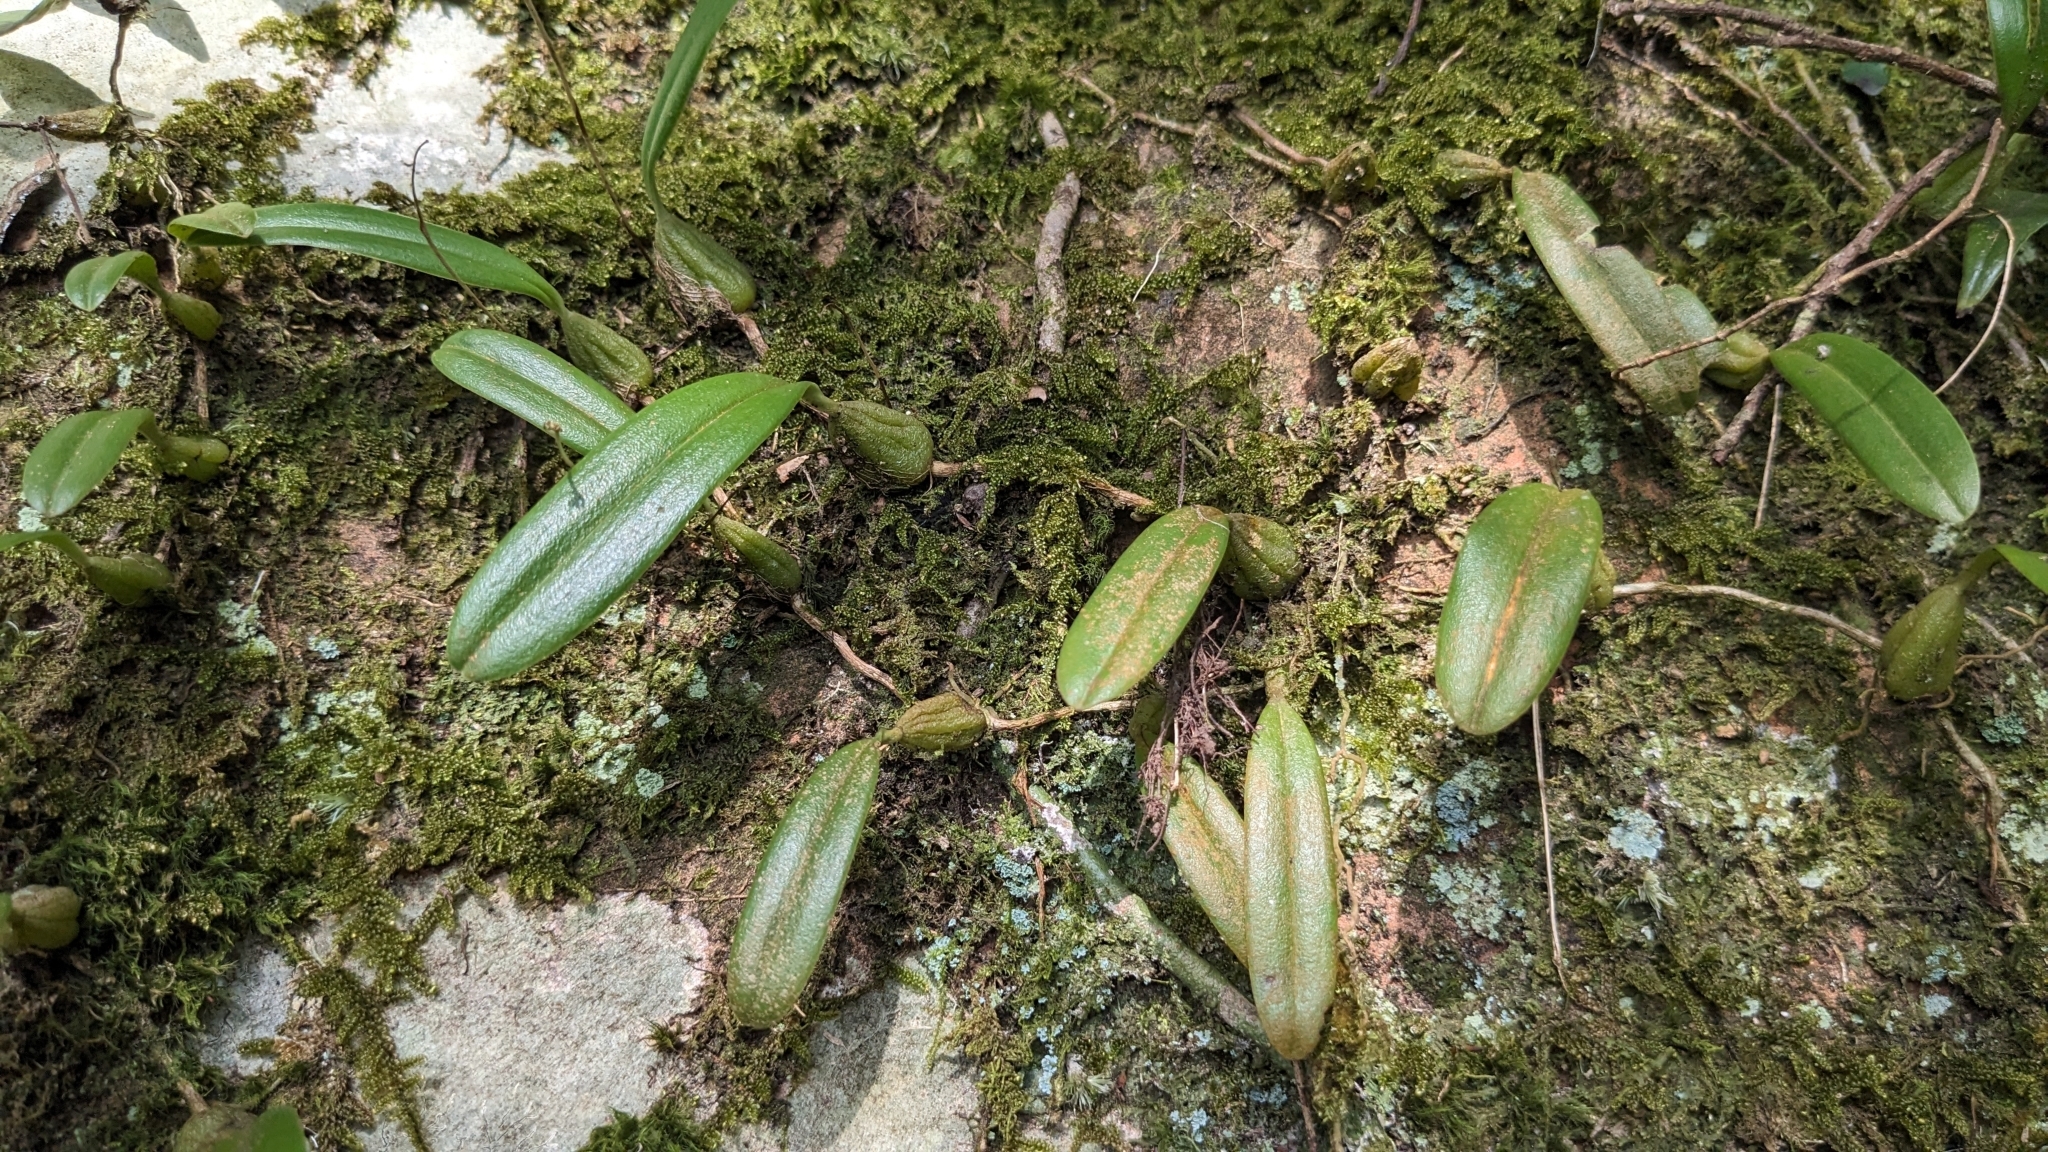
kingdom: Plantae
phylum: Tracheophyta
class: Liliopsida
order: Asparagales
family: Orchidaceae
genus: Bulbophyllum
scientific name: Bulbophyllum retusiusculum
